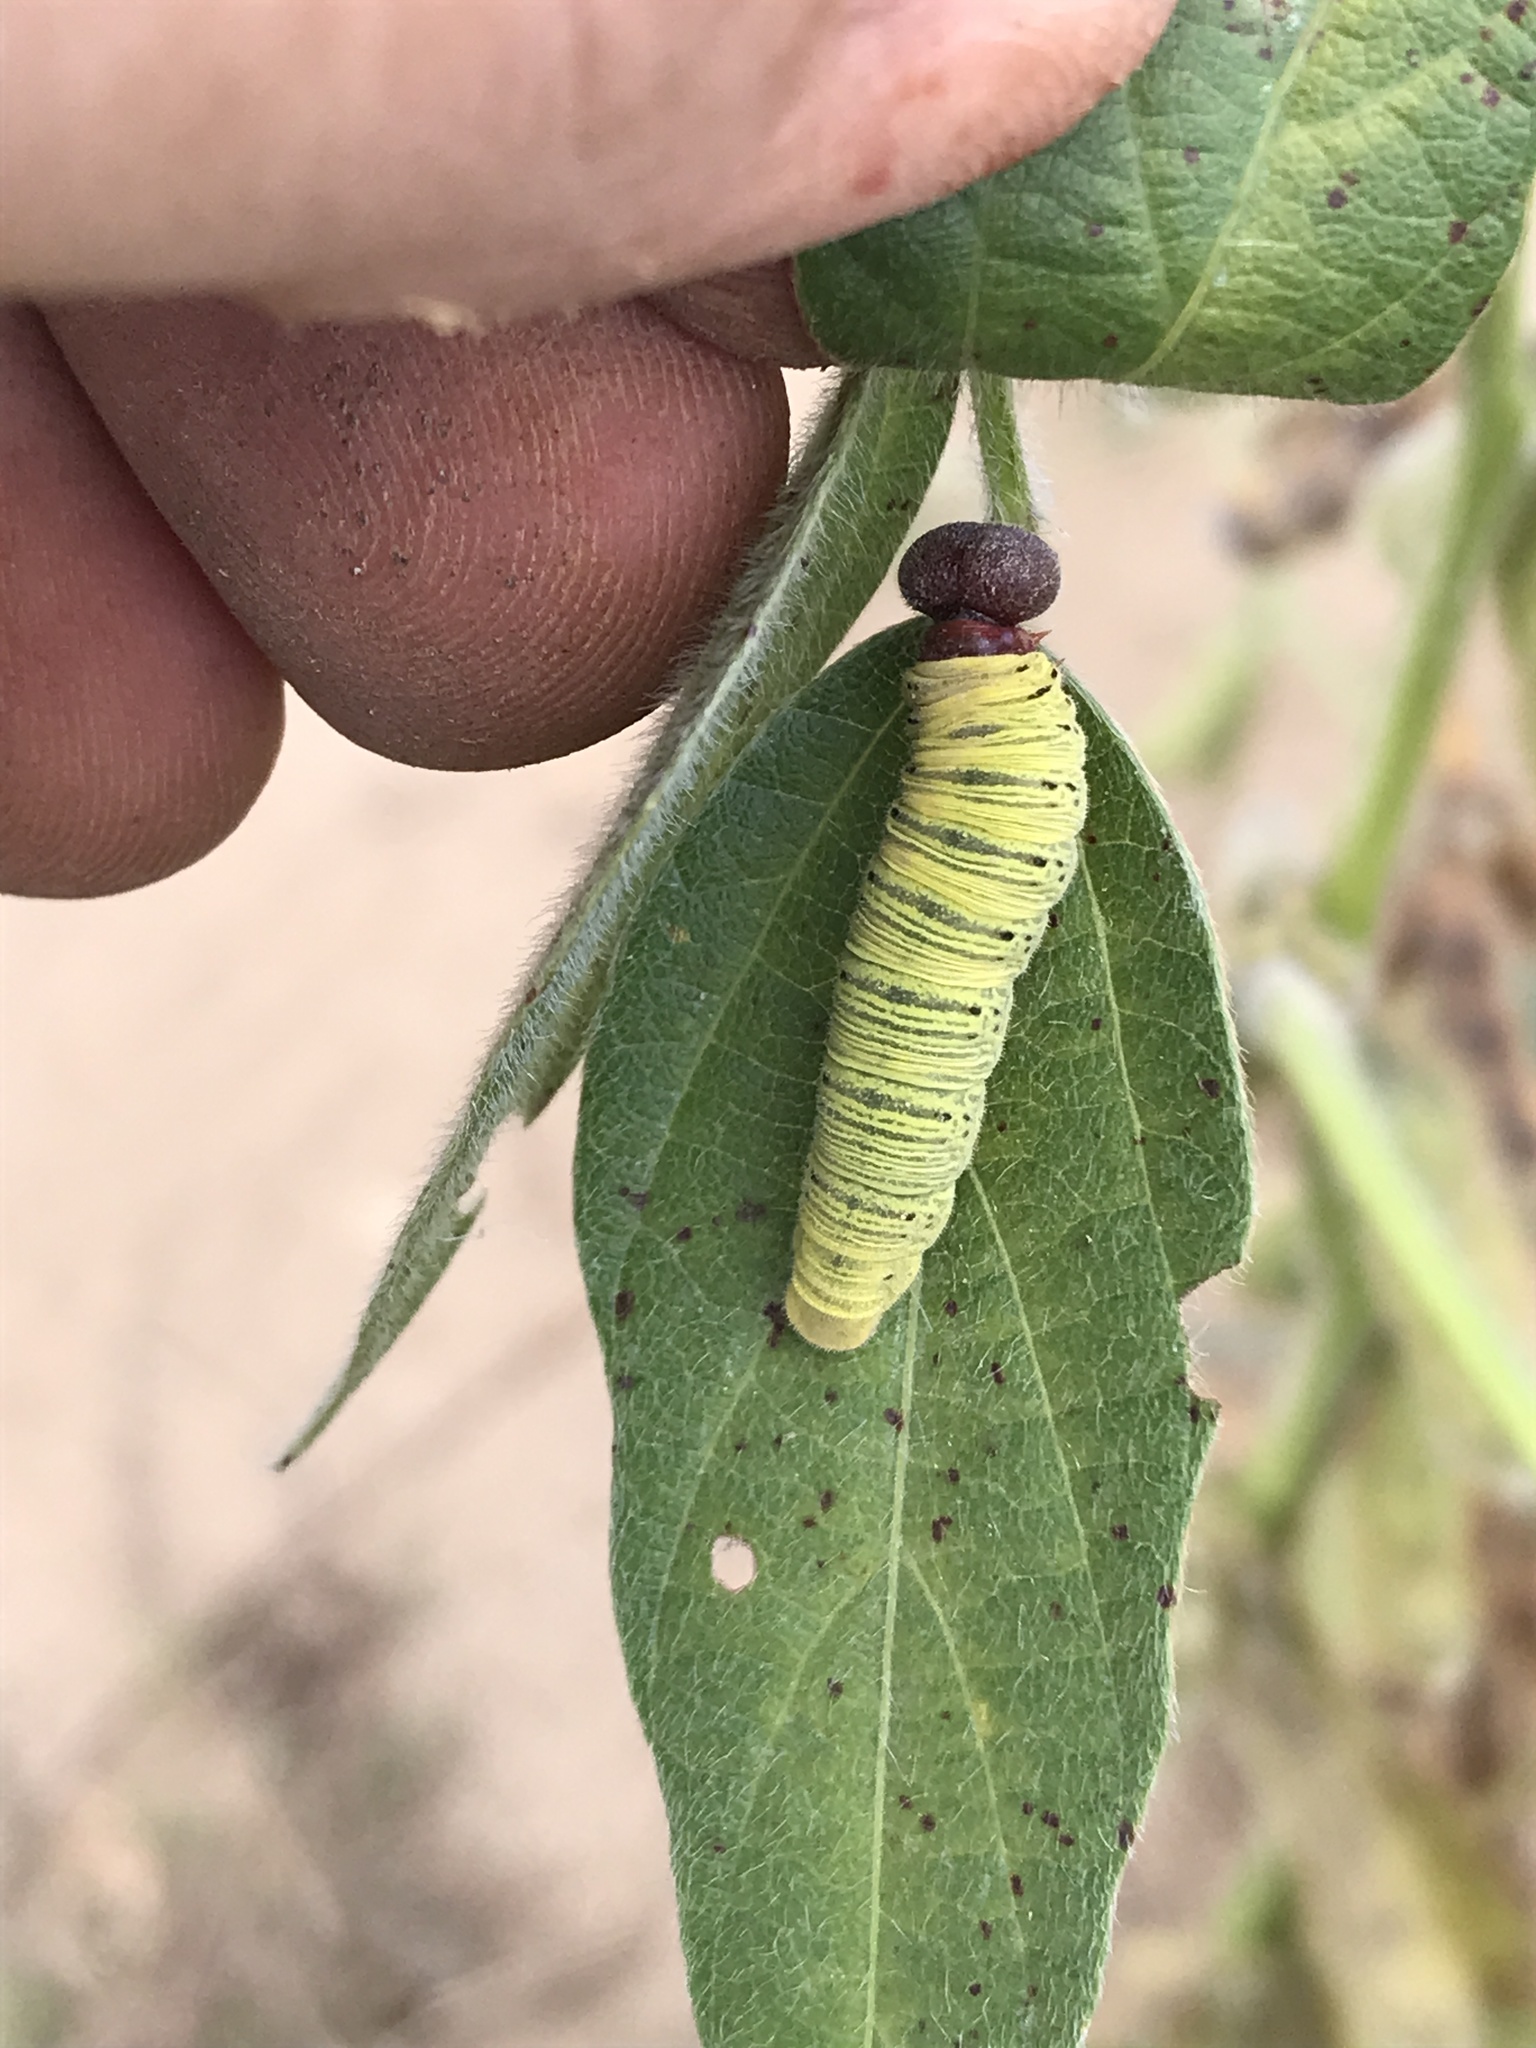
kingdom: Animalia
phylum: Arthropoda
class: Insecta
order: Lepidoptera
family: Hesperiidae
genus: Epargyreus
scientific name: Epargyreus clarus
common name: Silver-spotted skipper
